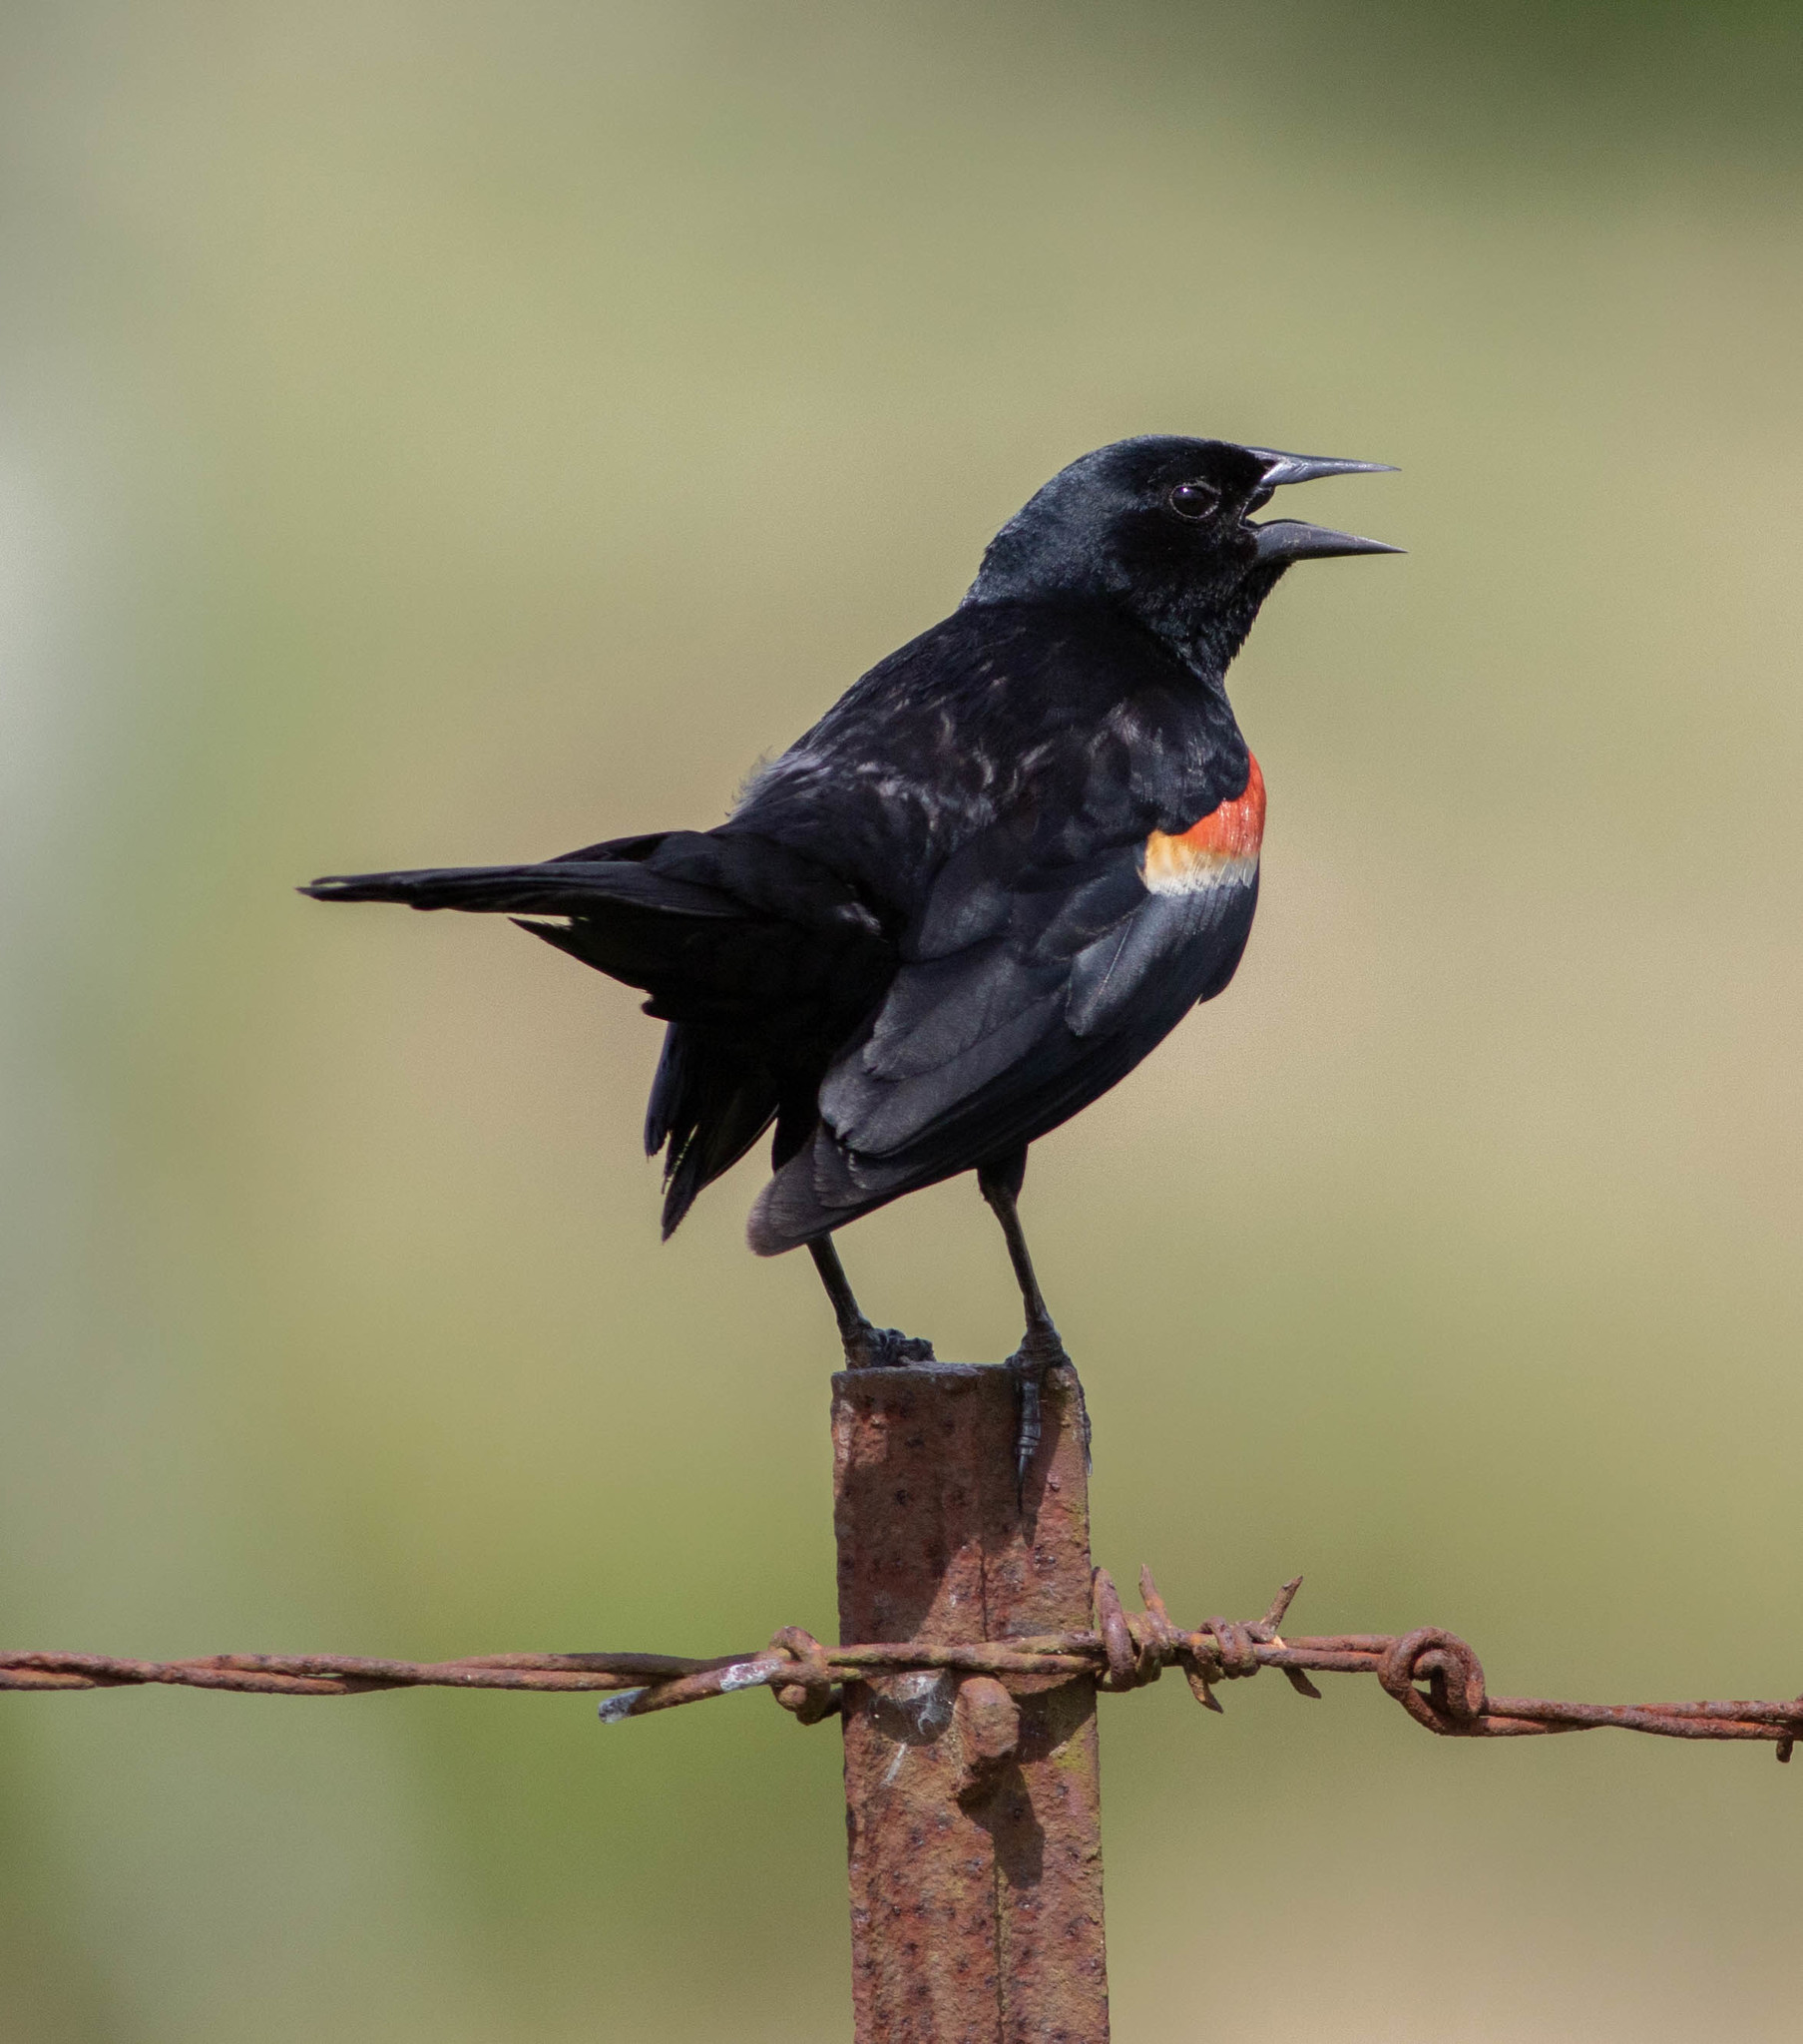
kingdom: Animalia
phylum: Chordata
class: Aves
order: Passeriformes
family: Icteridae
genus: Agelaius
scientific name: Agelaius phoeniceus
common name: Red-winged blackbird
